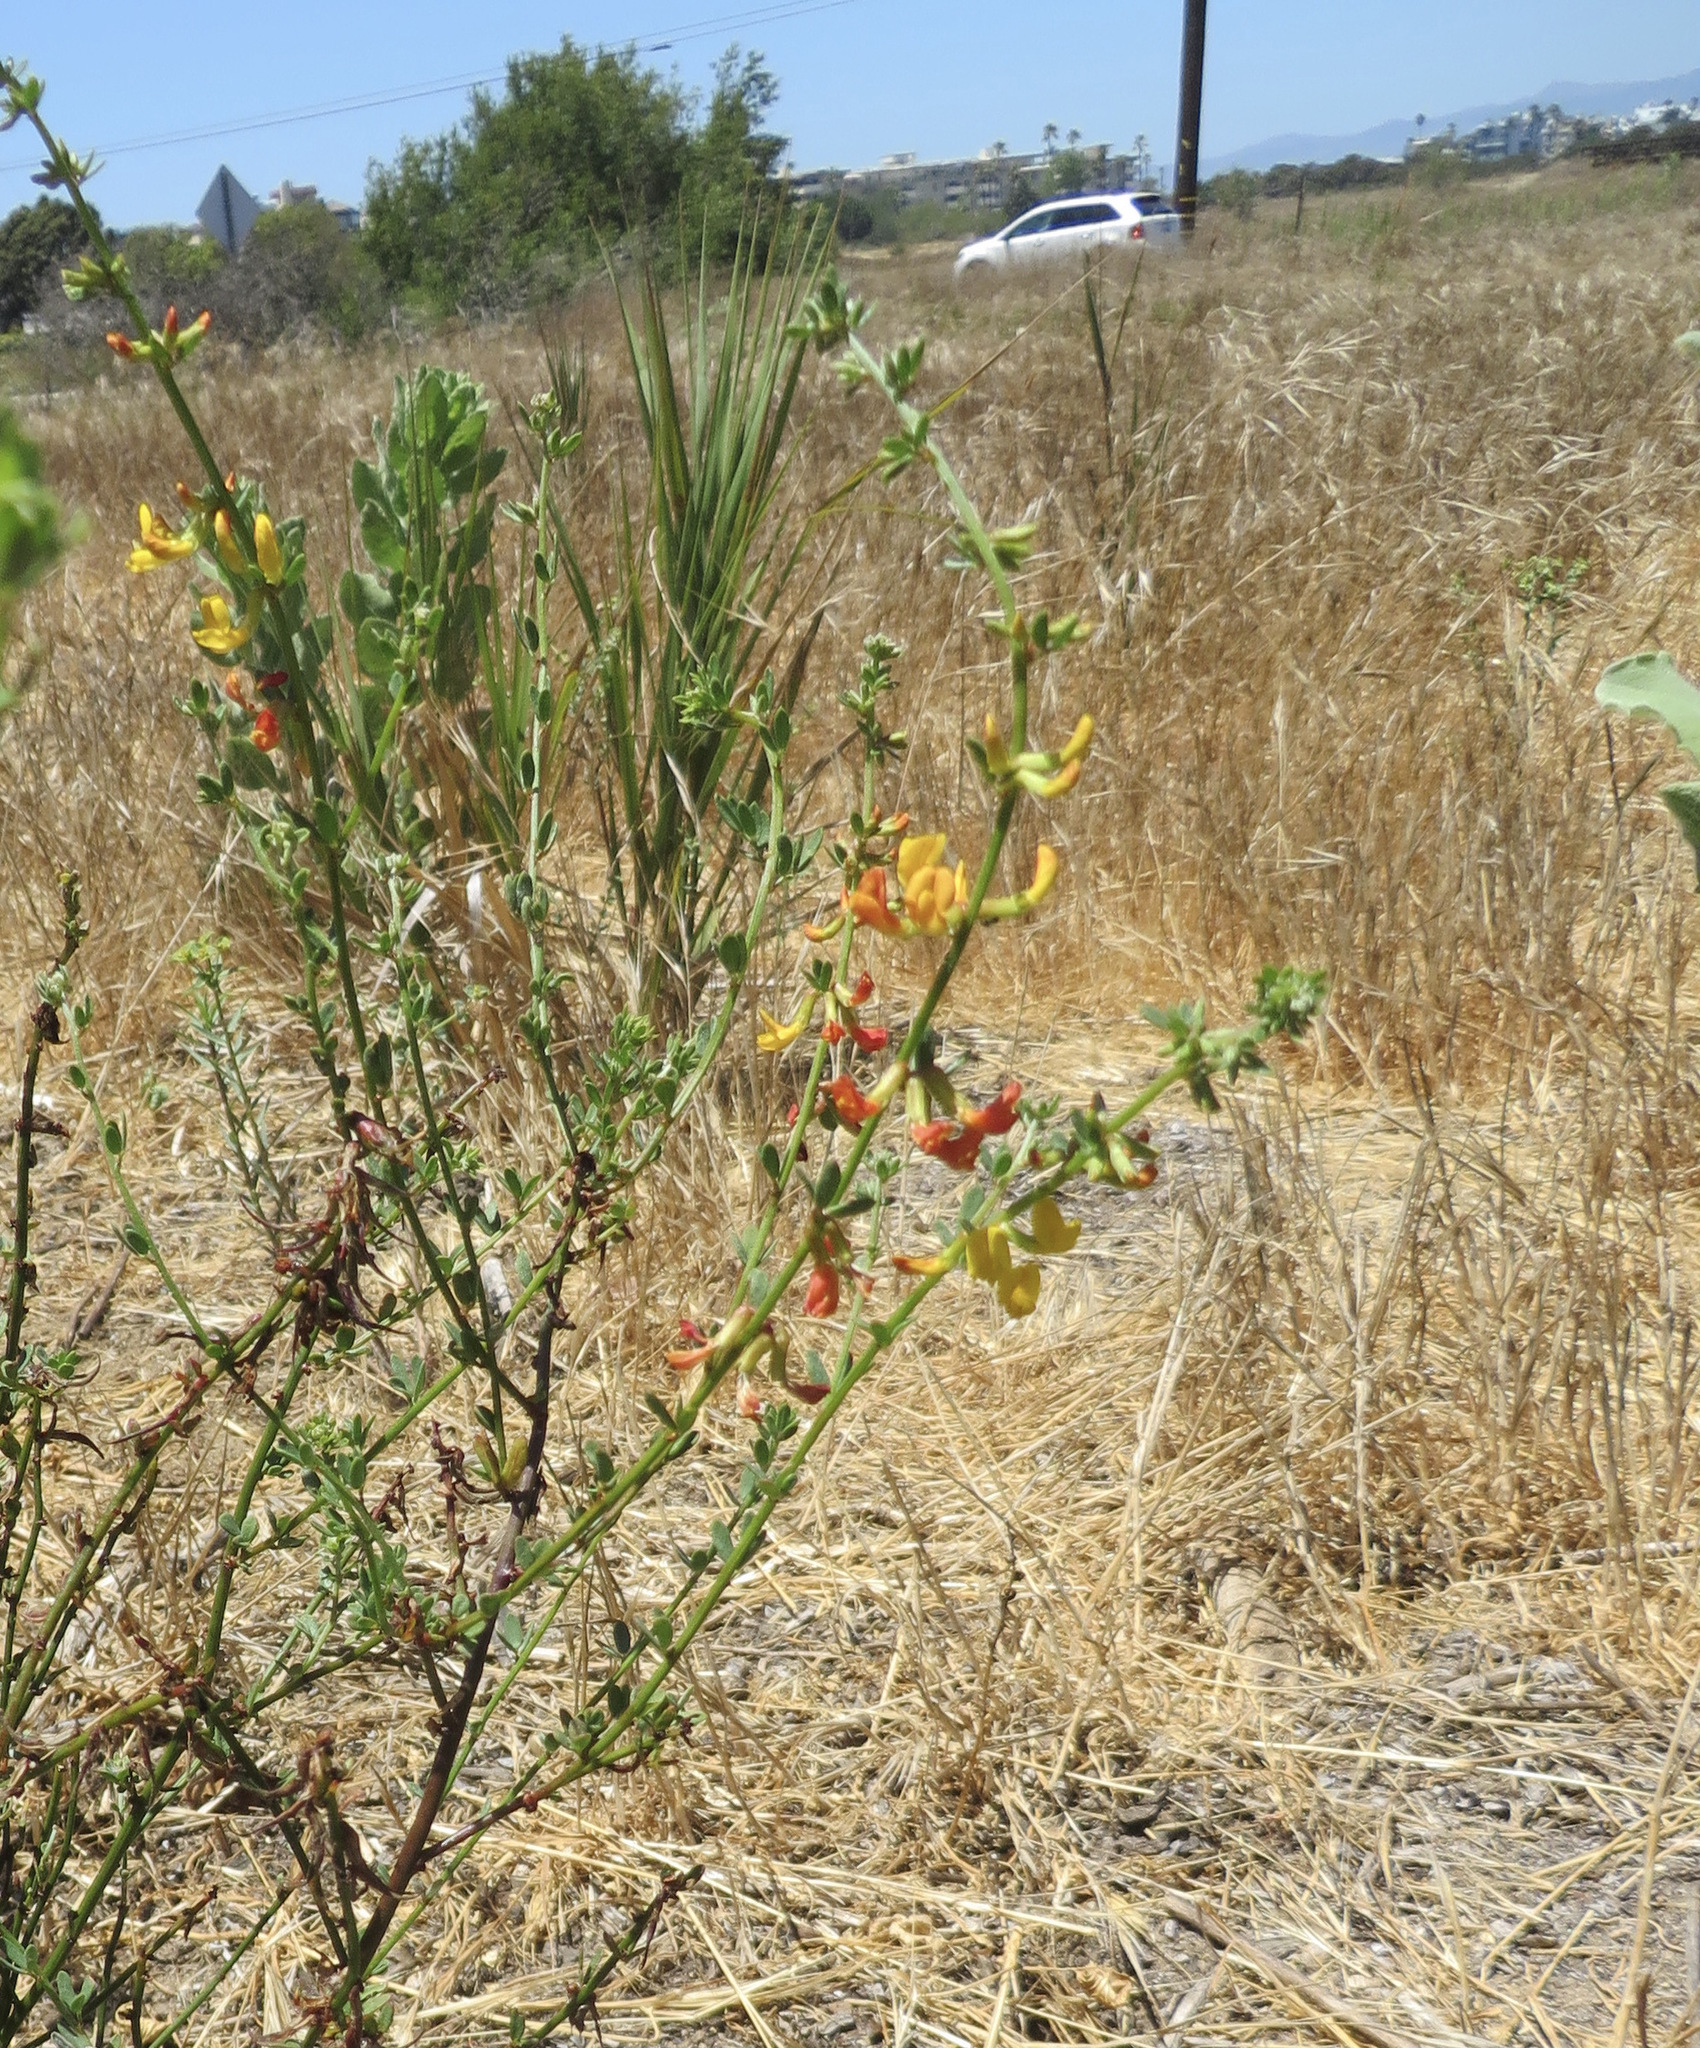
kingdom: Plantae
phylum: Tracheophyta
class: Magnoliopsida
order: Fabales
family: Fabaceae
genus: Acmispon
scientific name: Acmispon glaber
